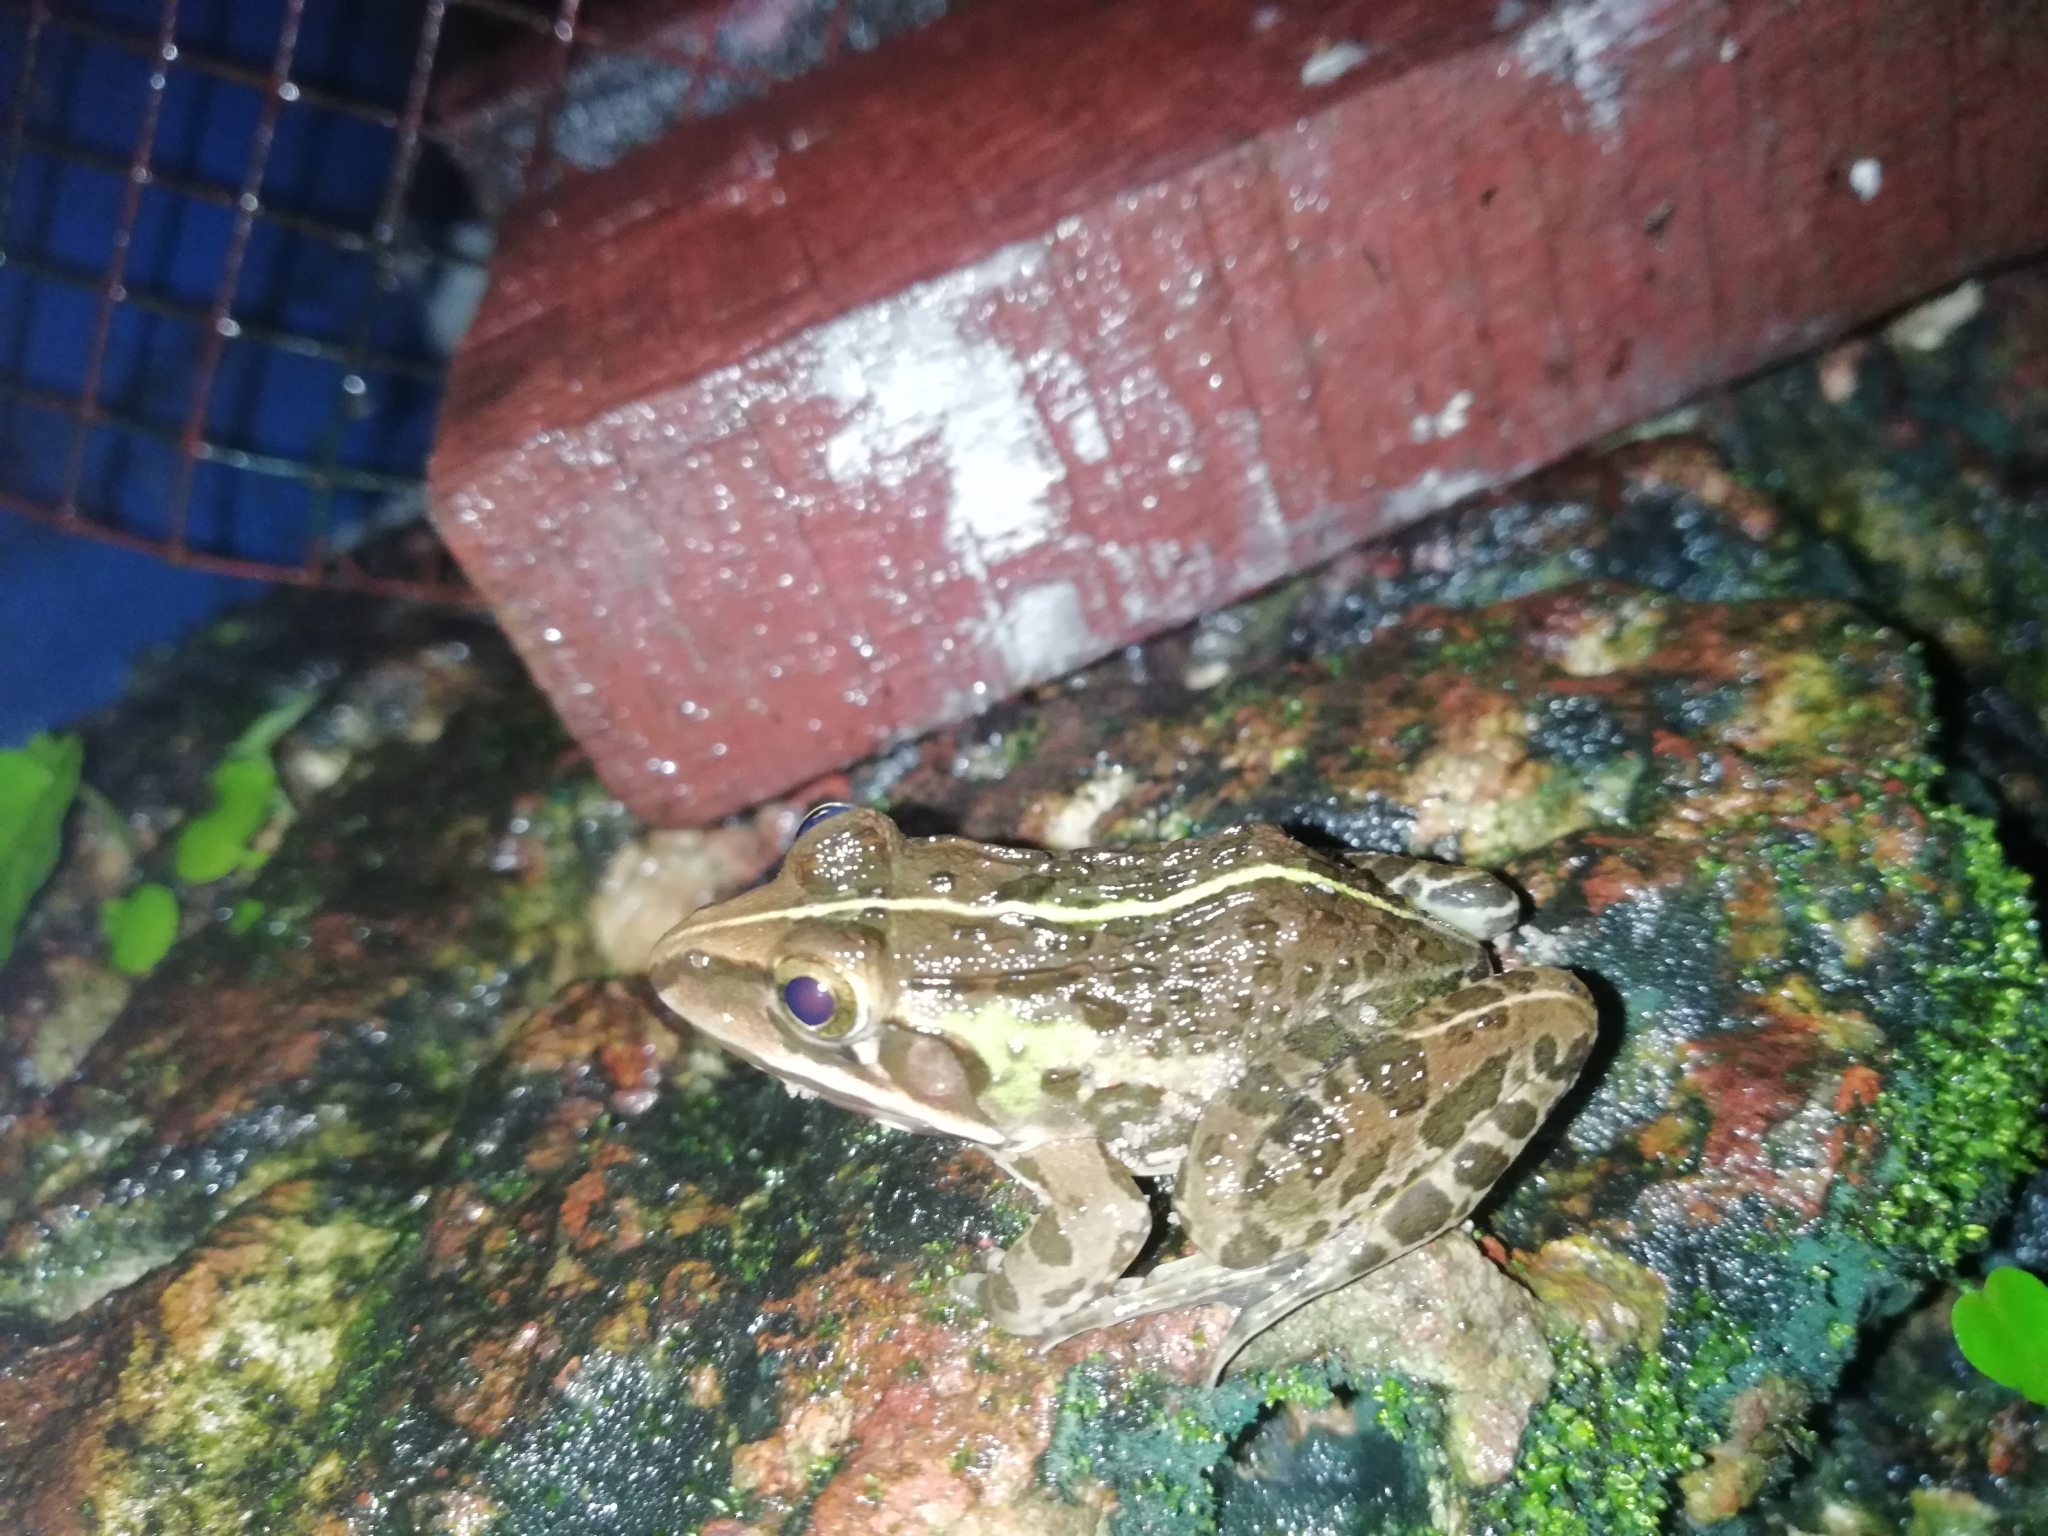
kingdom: Animalia
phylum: Chordata
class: Amphibia
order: Anura
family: Dicroglossidae
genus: Hoplobatrachus
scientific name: Hoplobatrachus tigerinus
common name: Indian bullfrog
